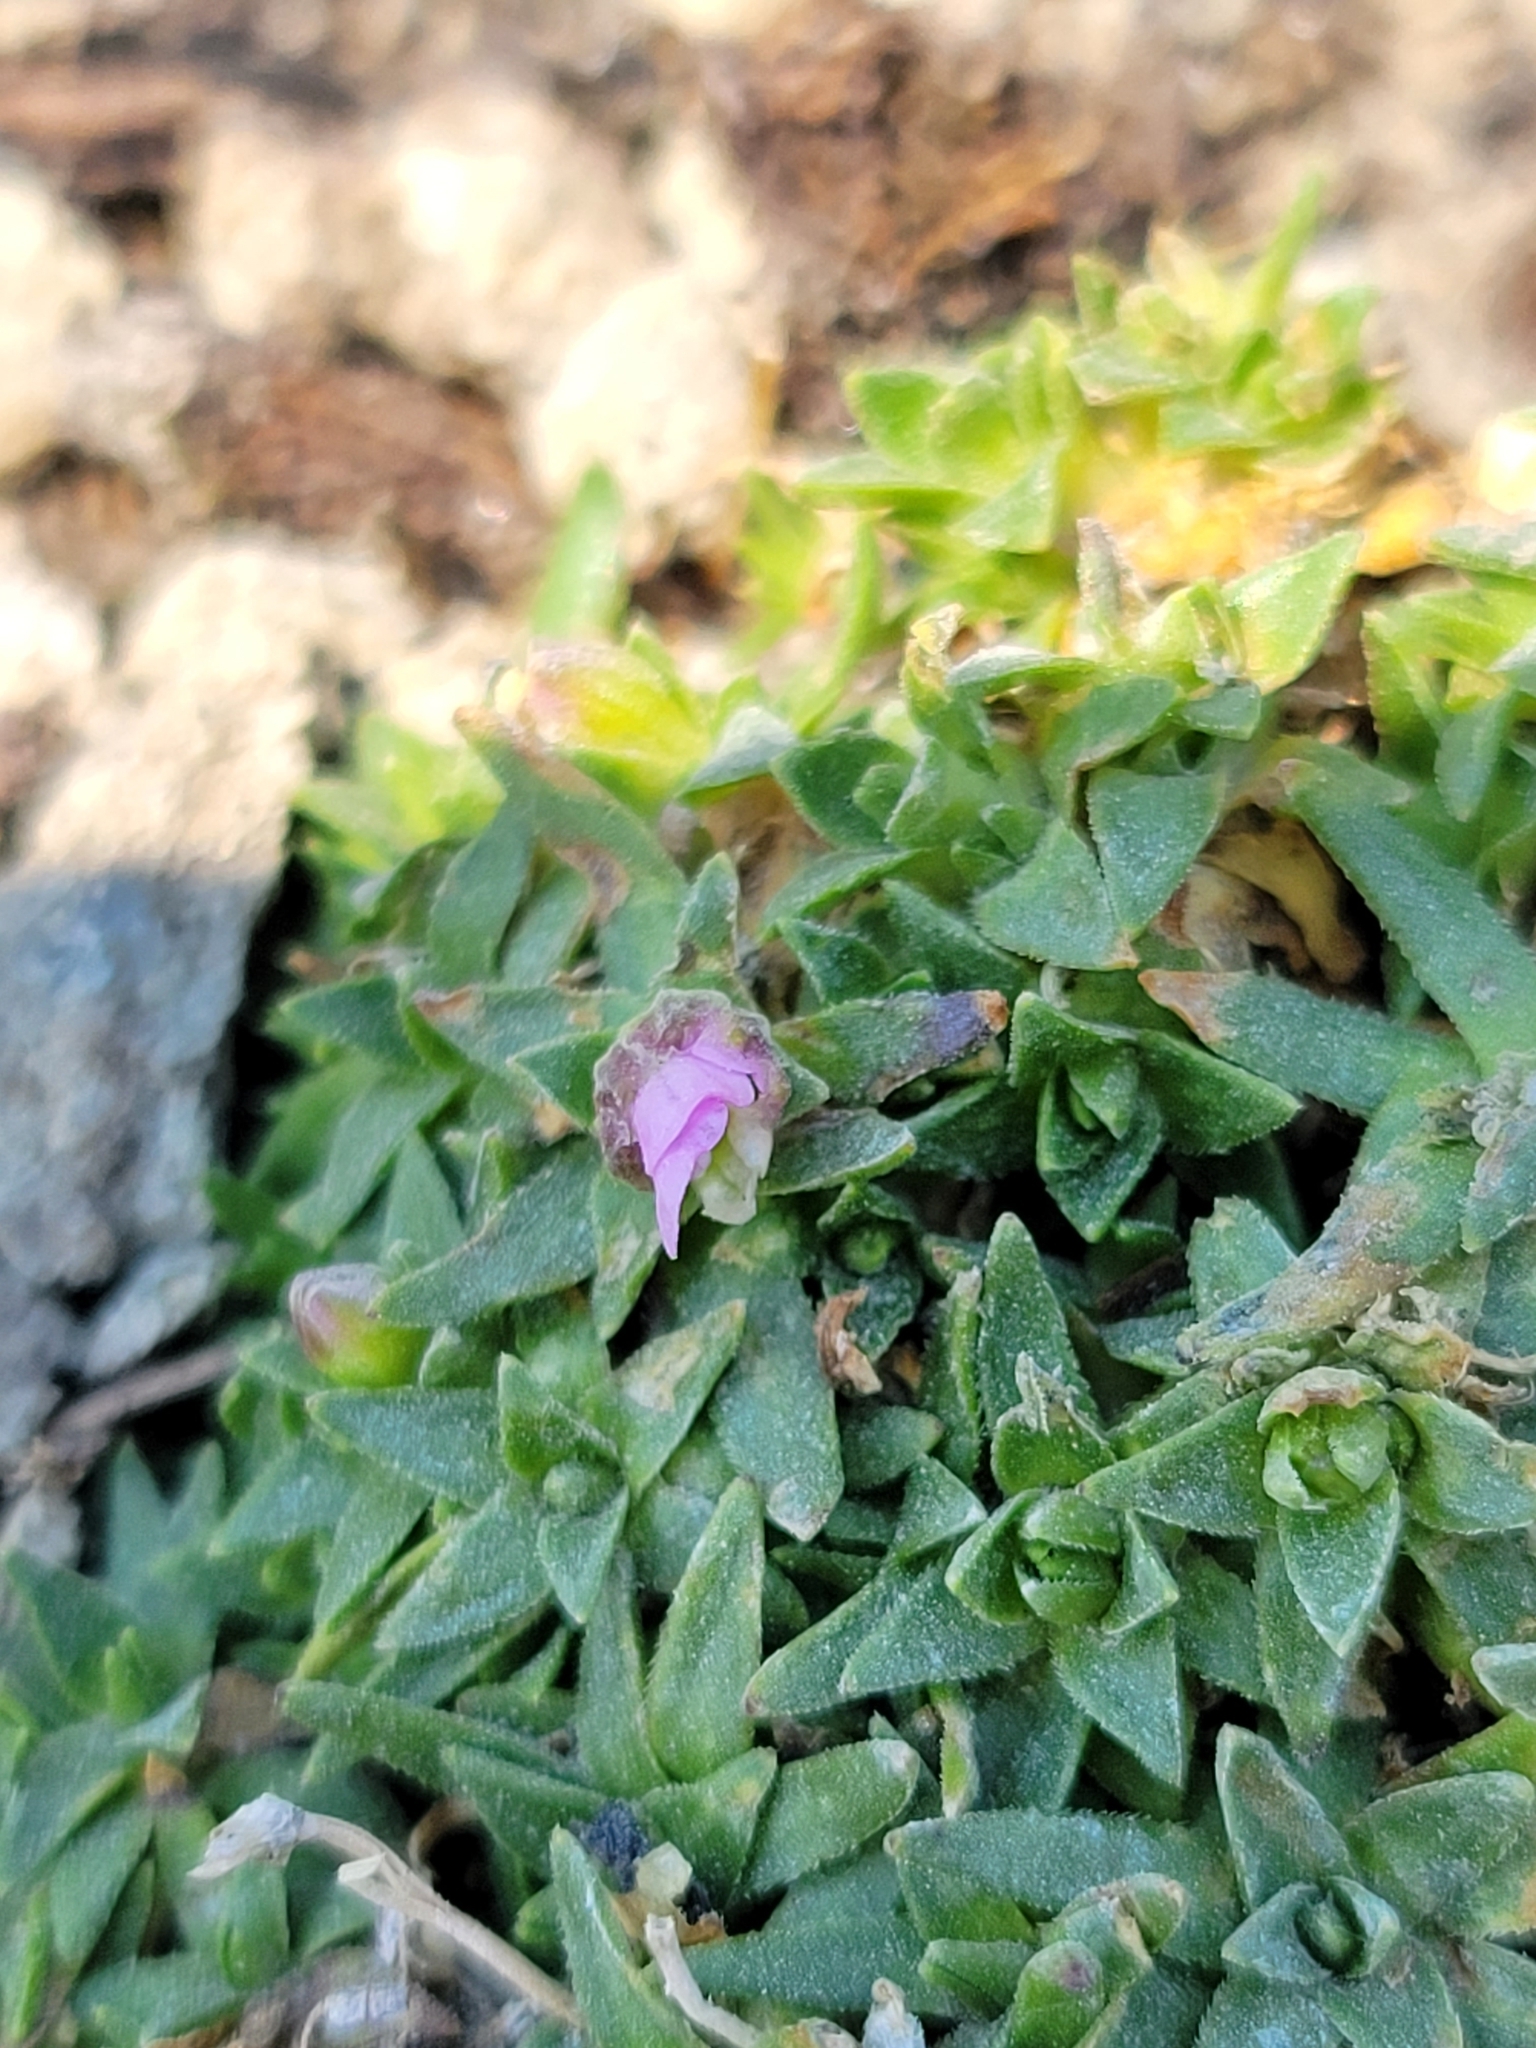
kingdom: Plantae
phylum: Tracheophyta
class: Magnoliopsida
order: Caryophyllales
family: Caryophyllaceae
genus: Silene
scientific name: Silene acaulis
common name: Moss campion
